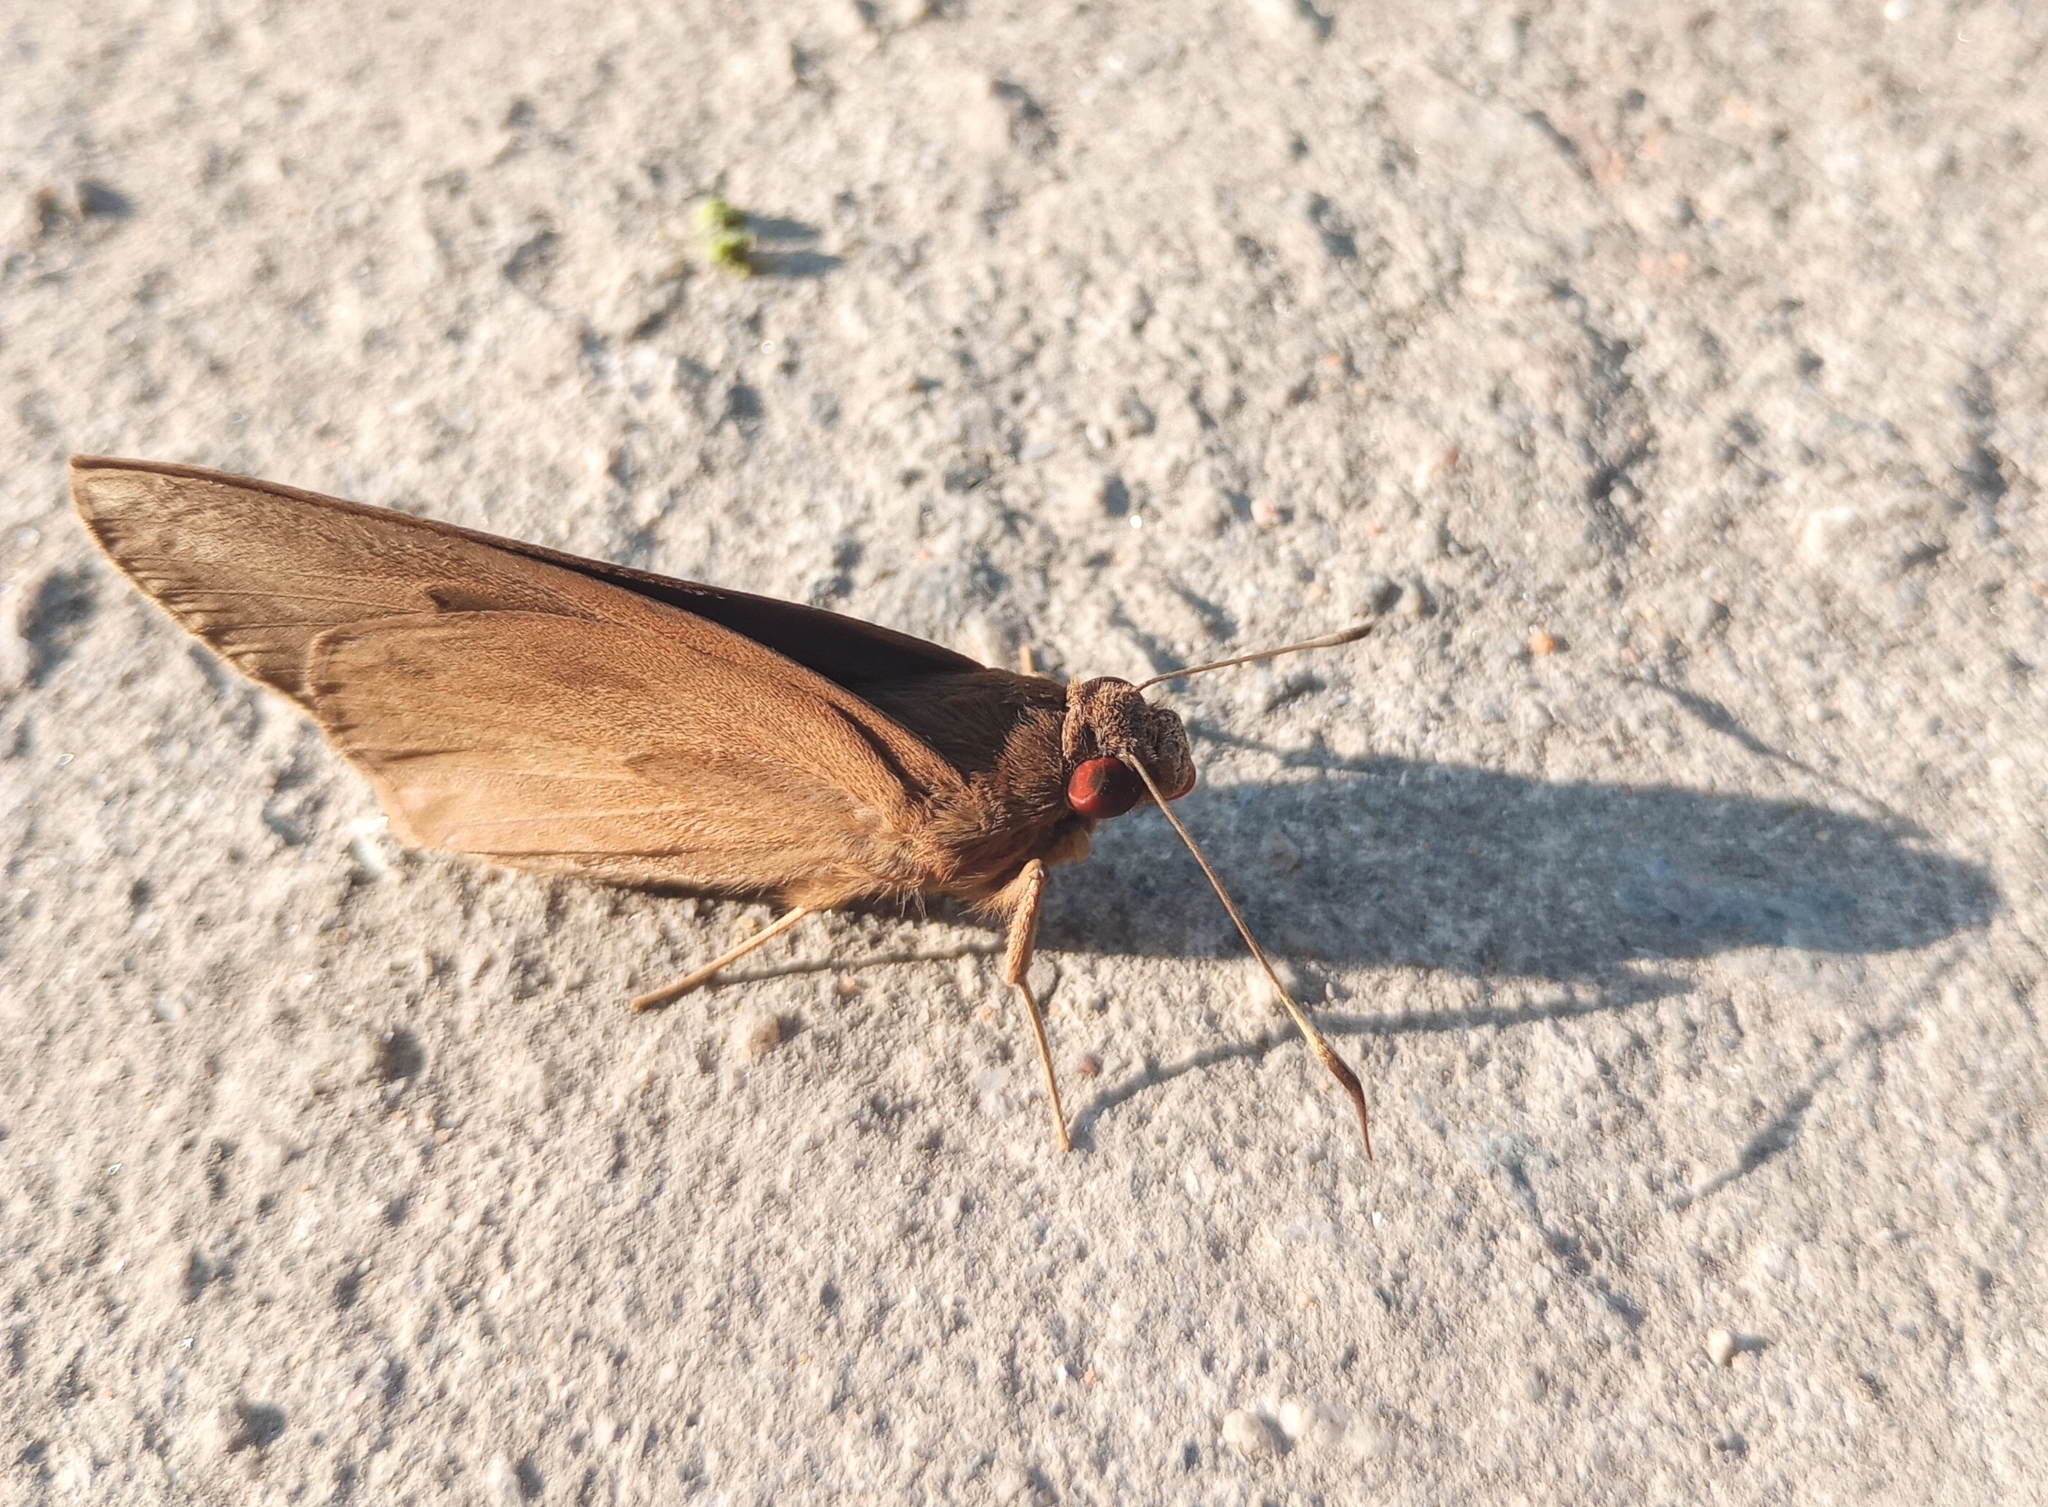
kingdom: Animalia
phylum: Arthropoda
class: Insecta
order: Lepidoptera
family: Hesperiidae
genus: Erionota
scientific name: Erionota torus
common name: Rounded palm-redeye
